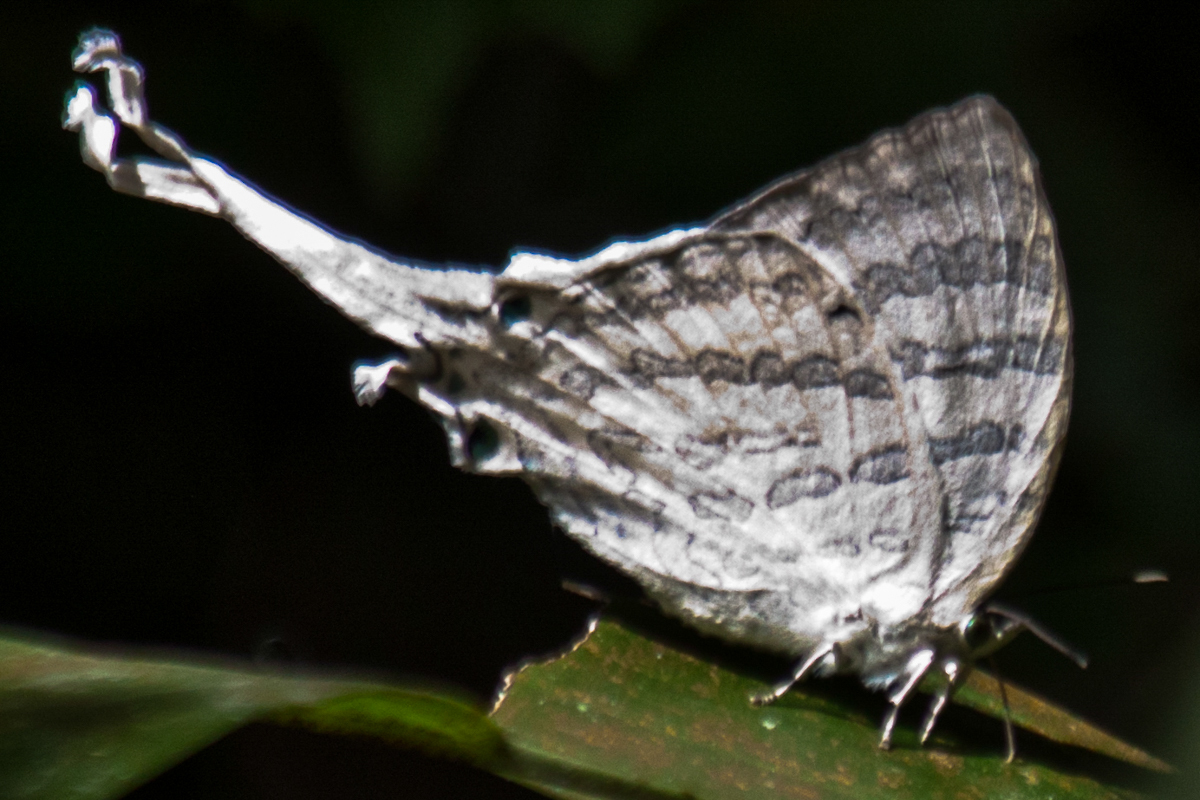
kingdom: Animalia
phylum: Arthropoda
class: Insecta
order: Lepidoptera
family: Lycaenidae
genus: Neomyrina
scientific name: Neomyrina hiemalis
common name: White imperial
